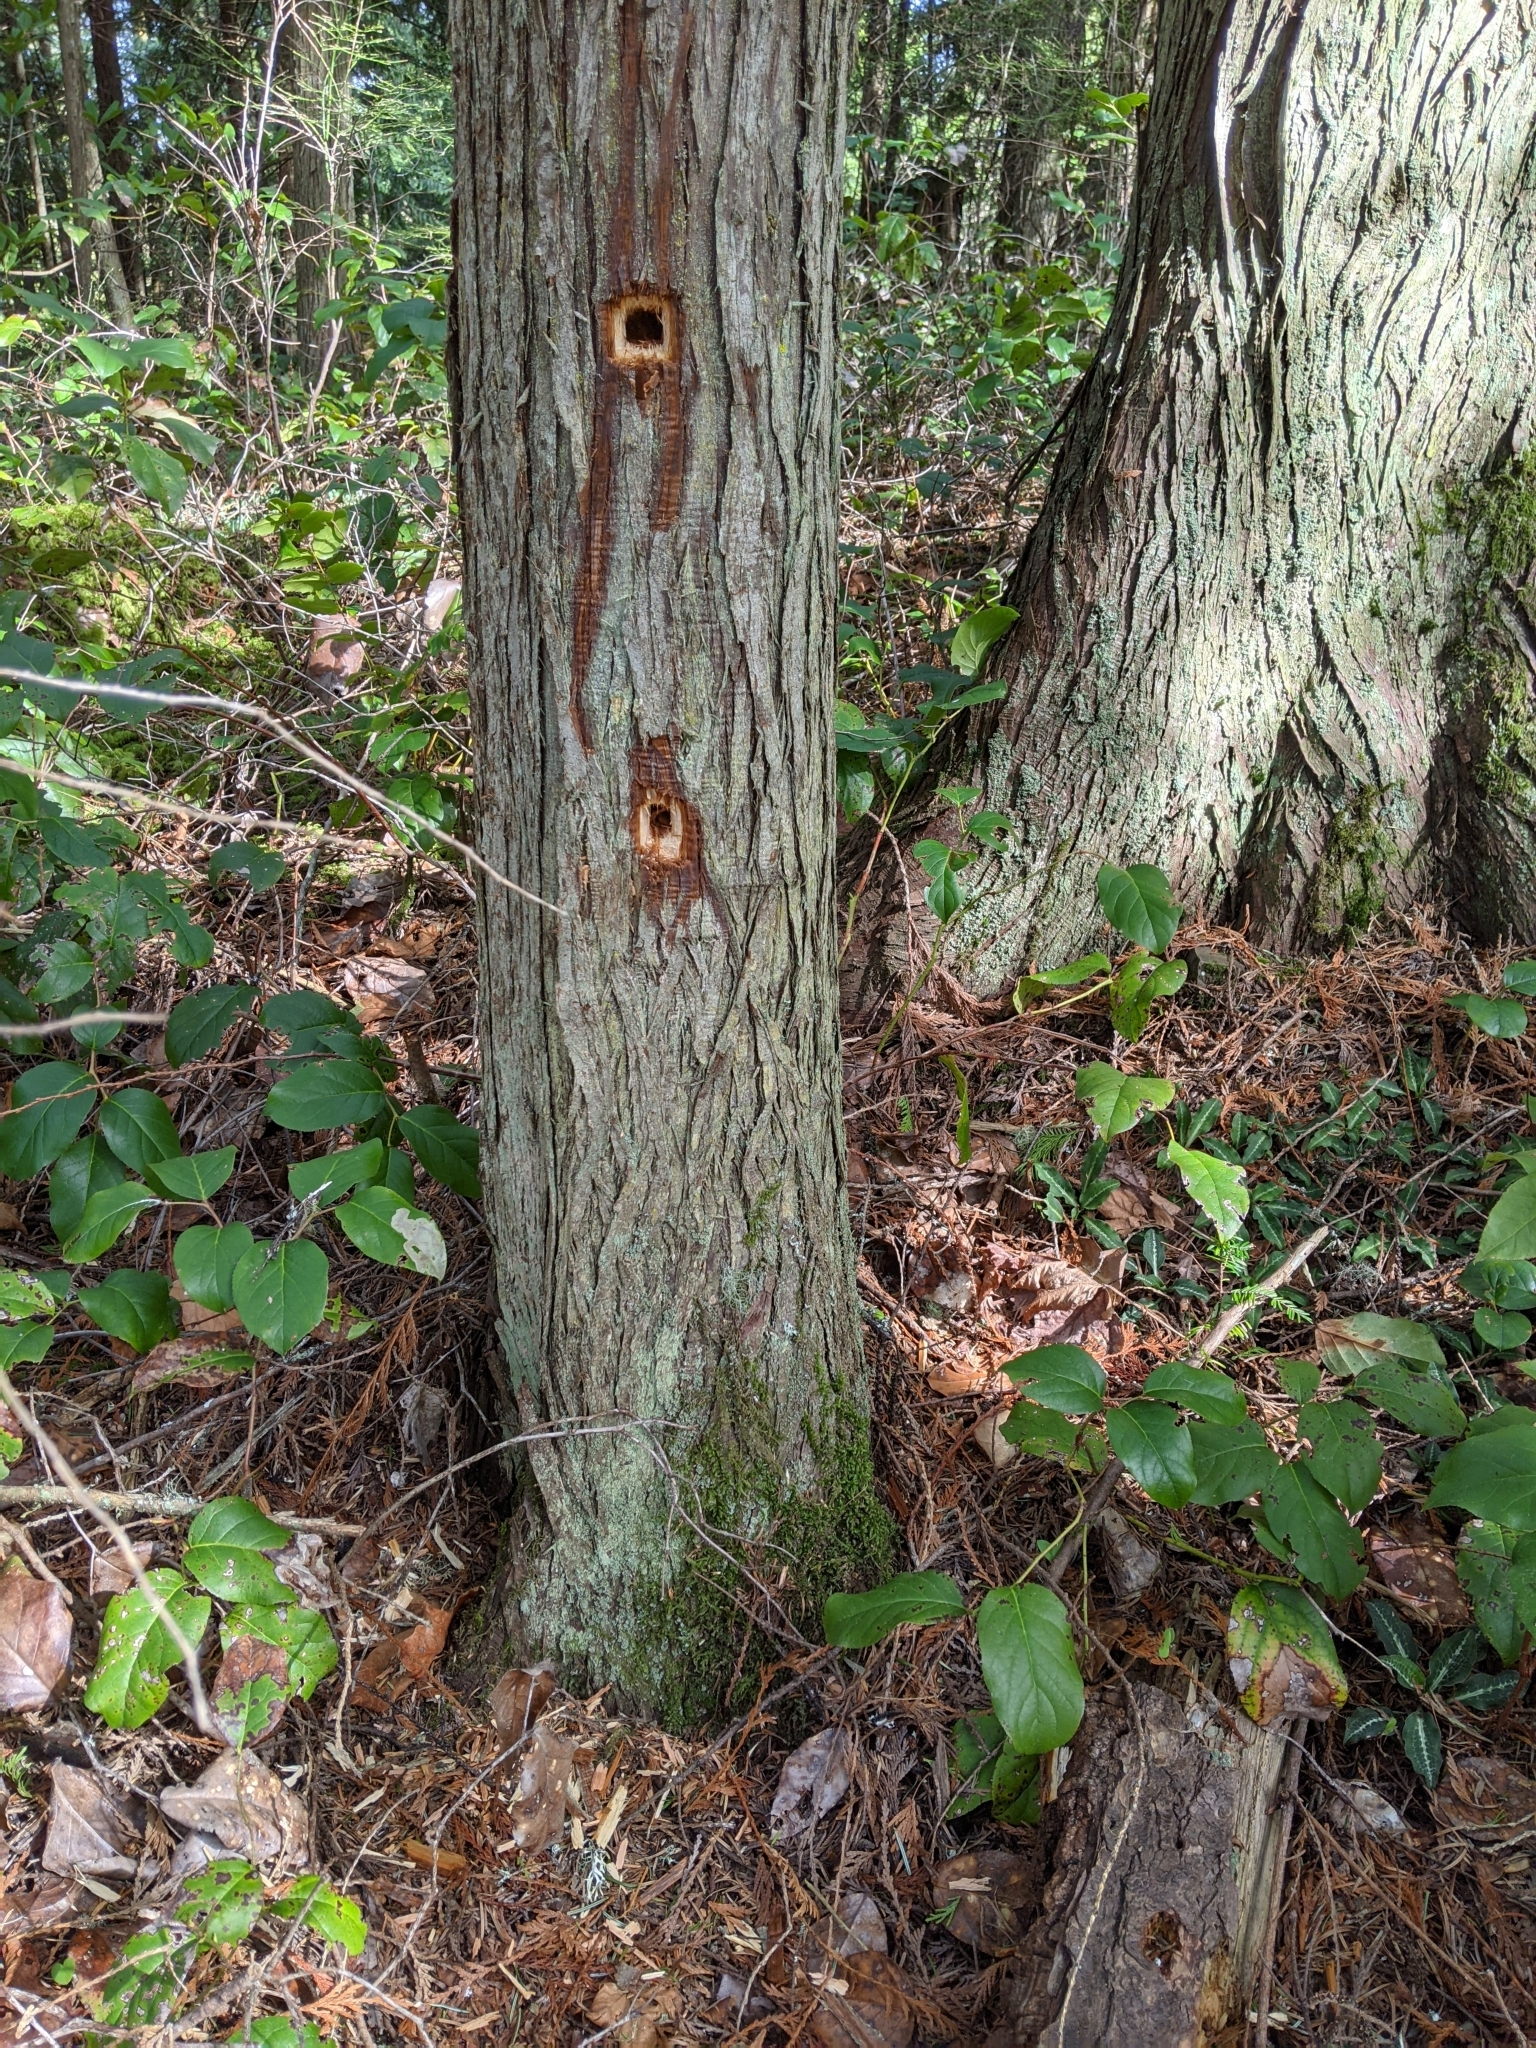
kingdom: Animalia
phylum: Chordata
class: Aves
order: Piciformes
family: Picidae
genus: Dryocopus
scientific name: Dryocopus pileatus
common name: Pileated woodpecker
